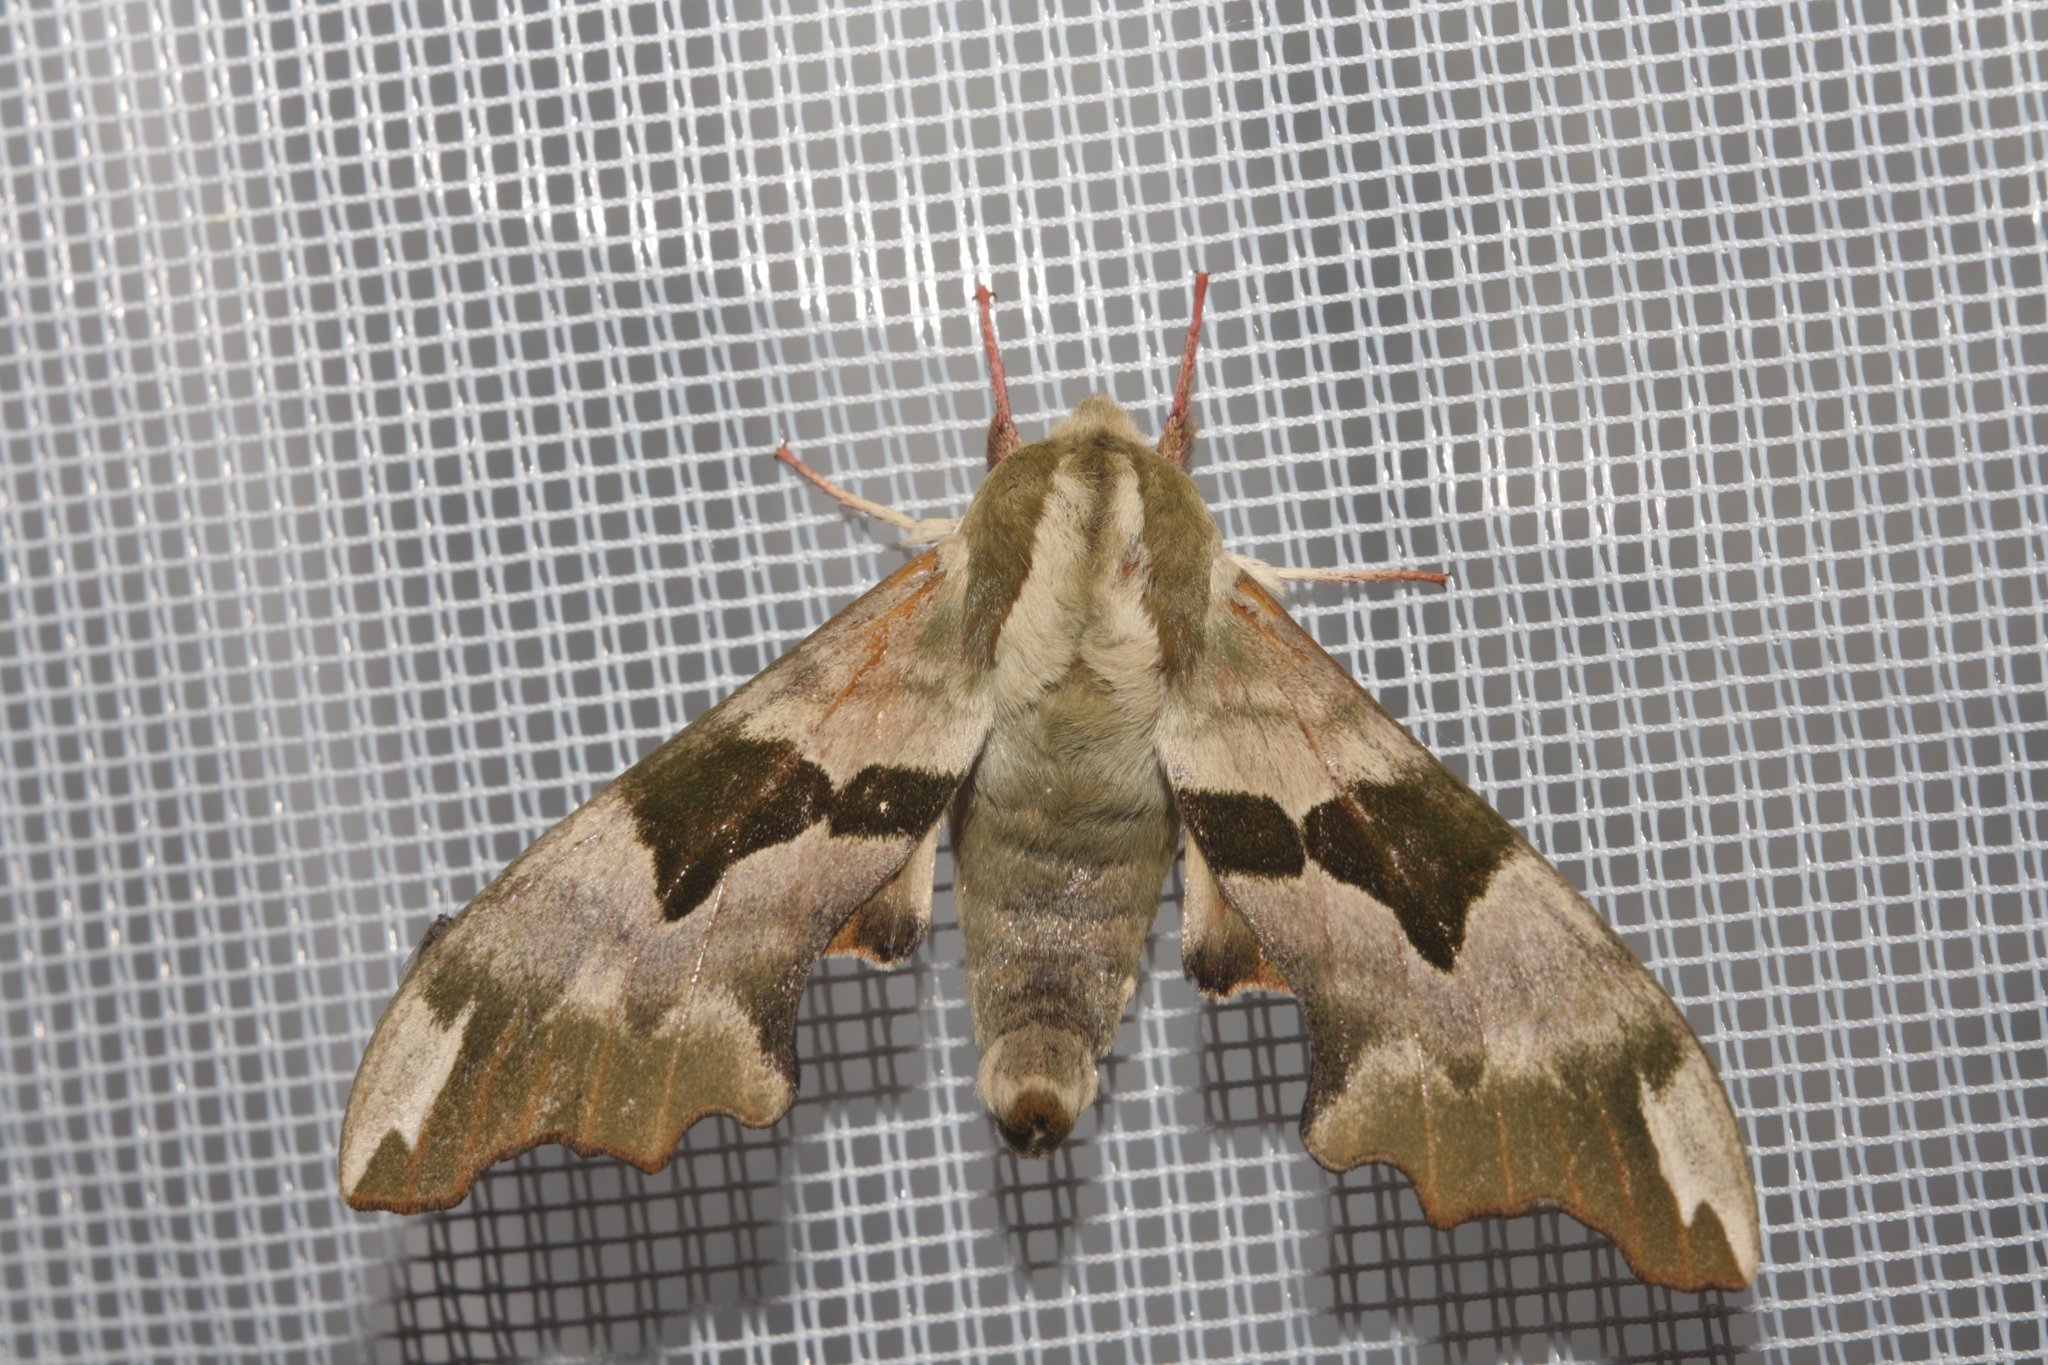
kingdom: Animalia
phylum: Arthropoda
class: Insecta
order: Lepidoptera
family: Sphingidae
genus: Mimas
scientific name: Mimas tiliae
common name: Lime hawk-moth
